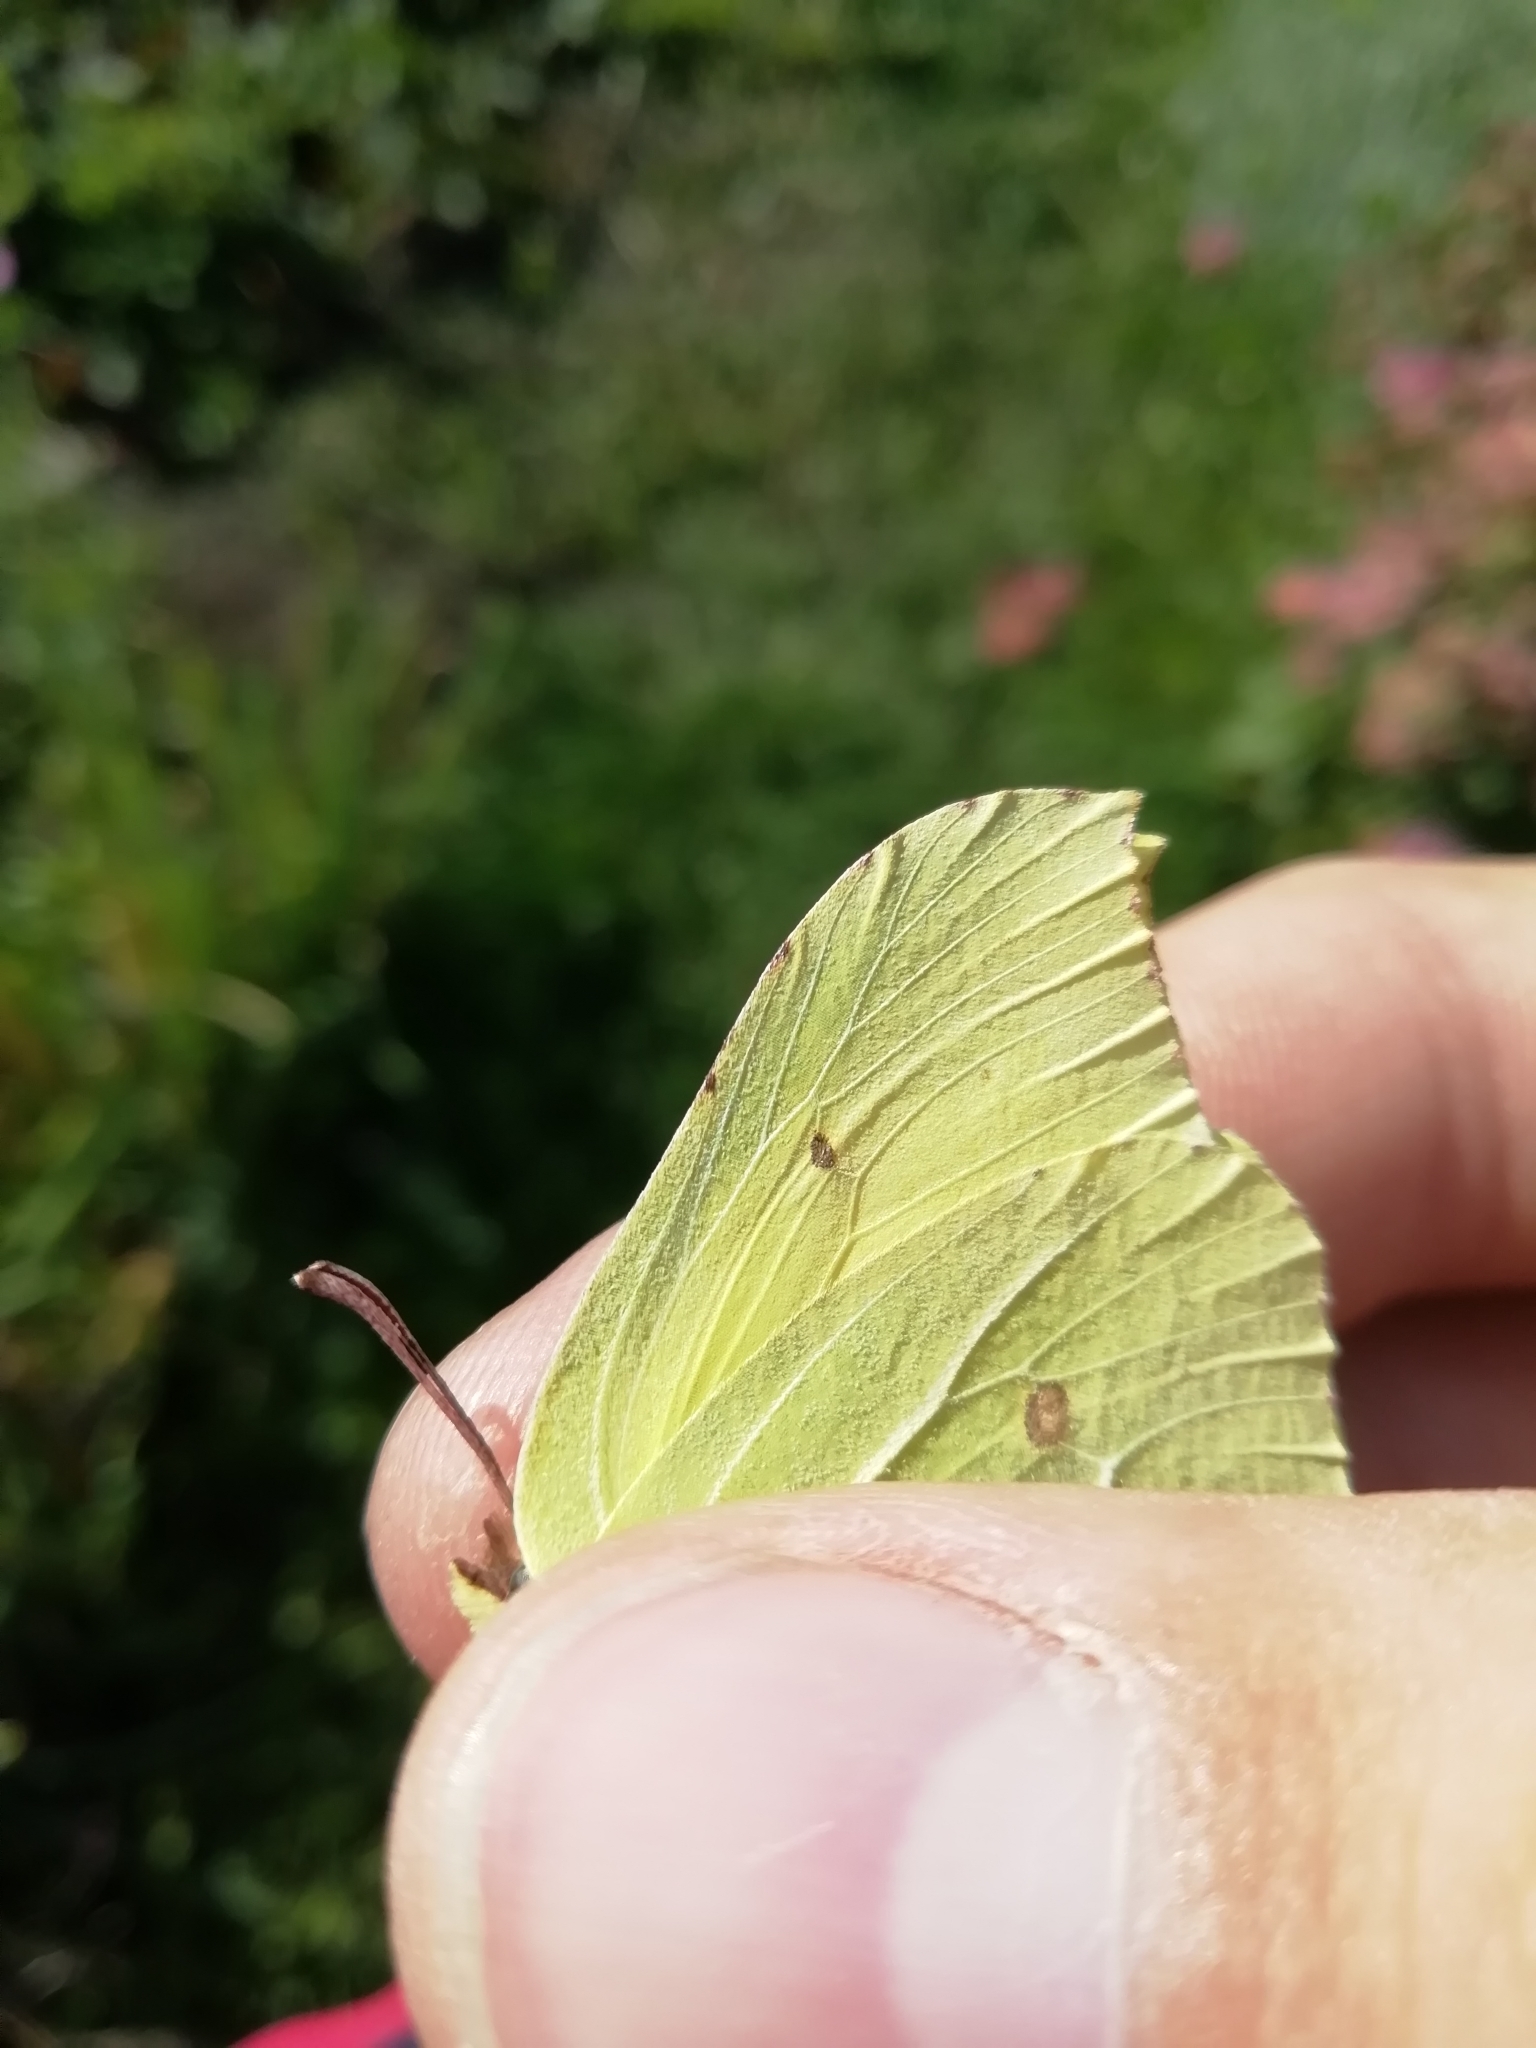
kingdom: Animalia
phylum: Arthropoda
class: Insecta
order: Lepidoptera
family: Pieridae
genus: Gonepteryx
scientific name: Gonepteryx rhamni
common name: Brimstone
